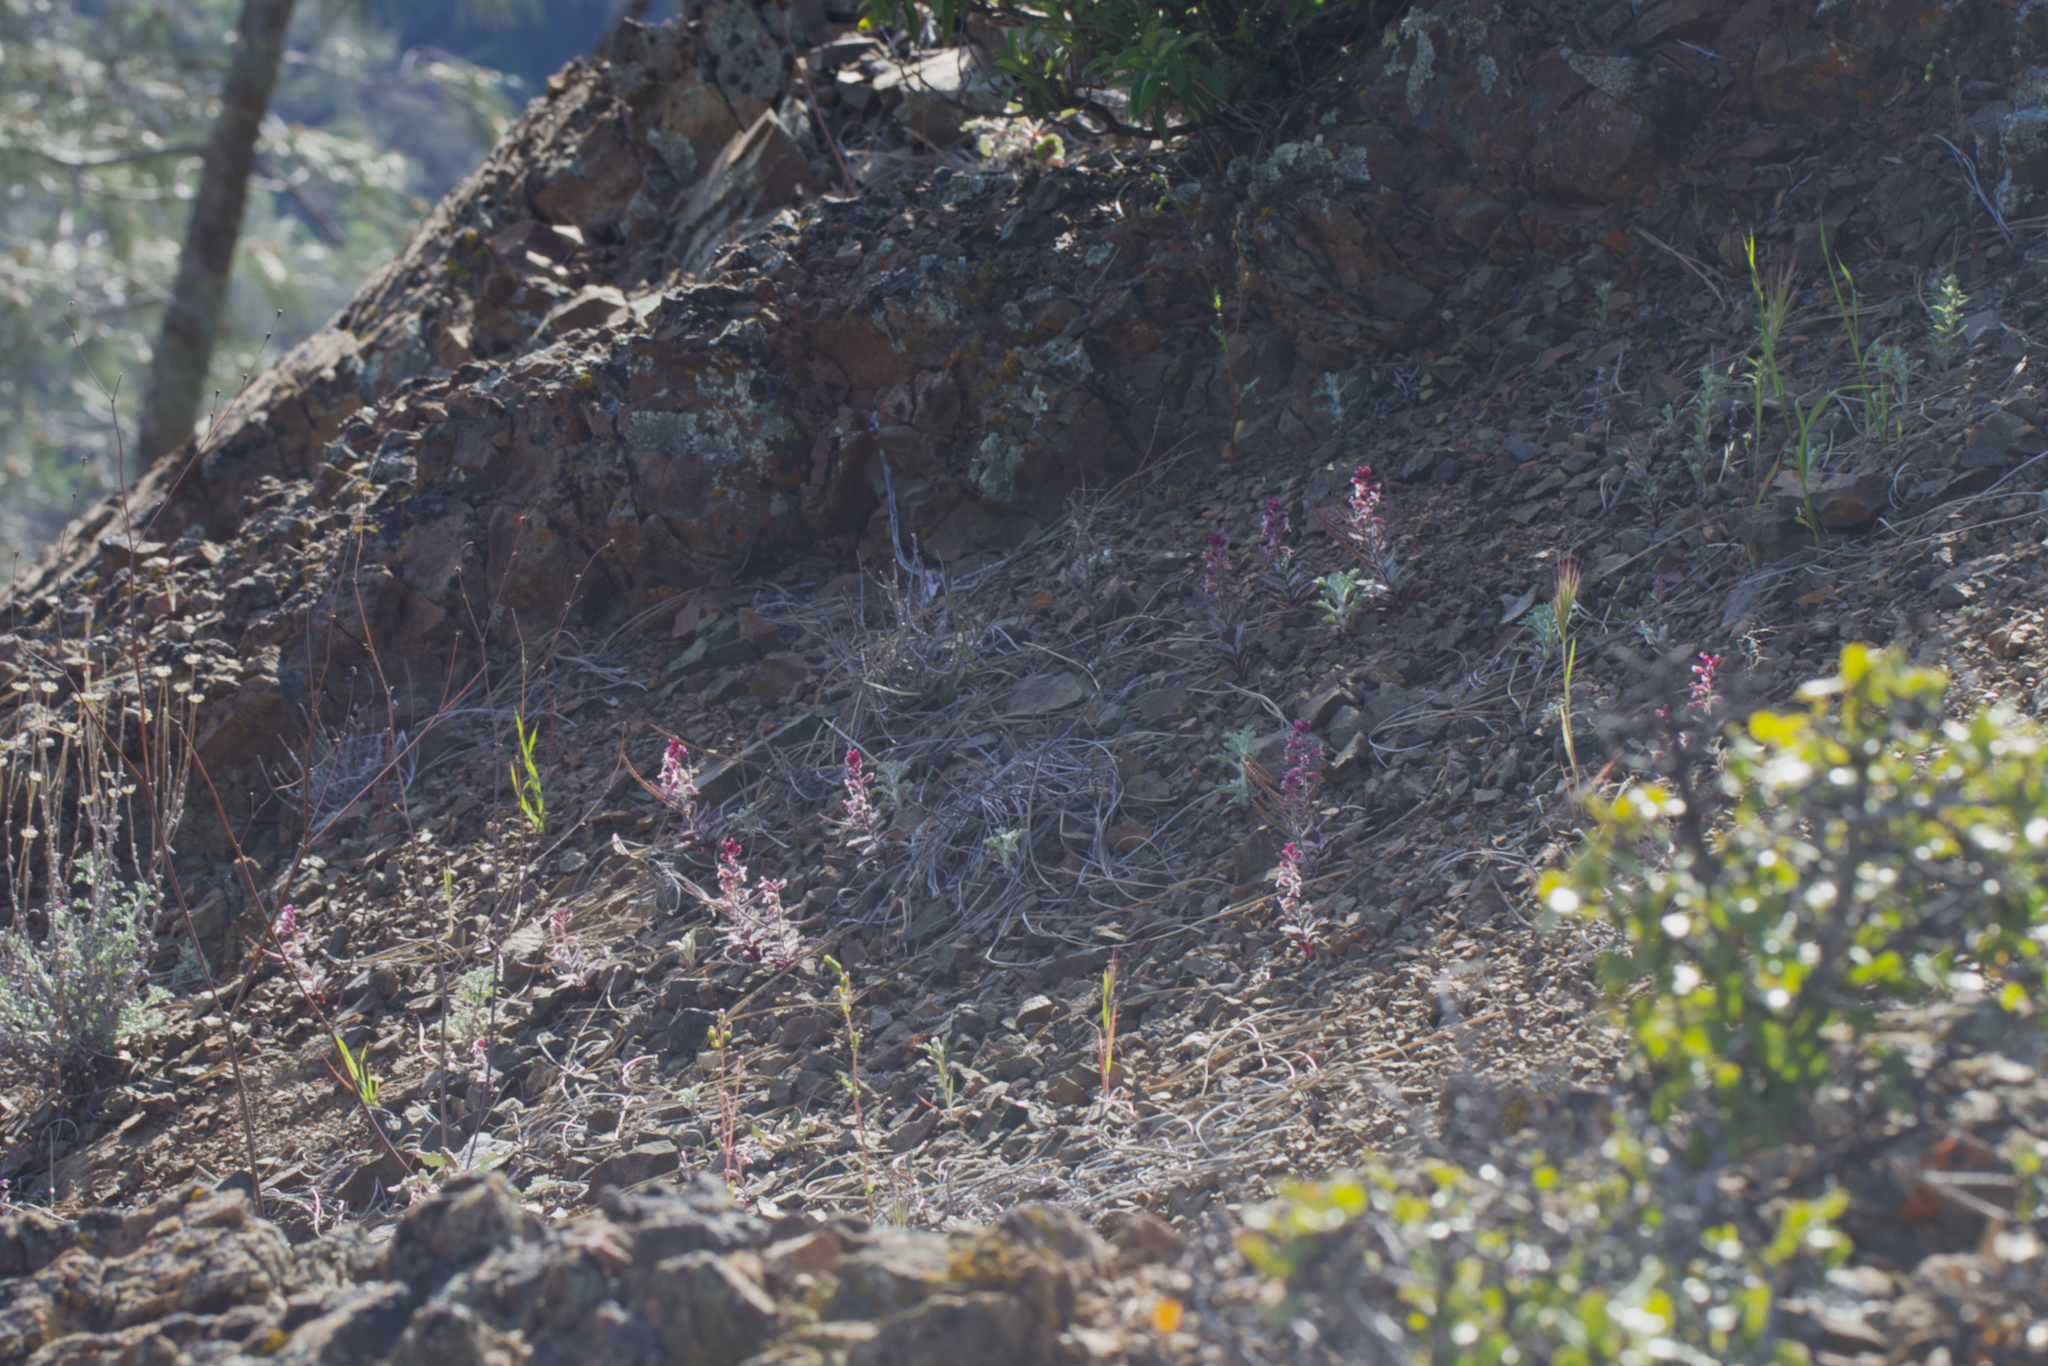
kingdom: Plantae
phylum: Tracheophyta
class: Magnoliopsida
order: Brassicales
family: Brassicaceae
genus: Streptanthus
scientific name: Streptanthus hispidus
